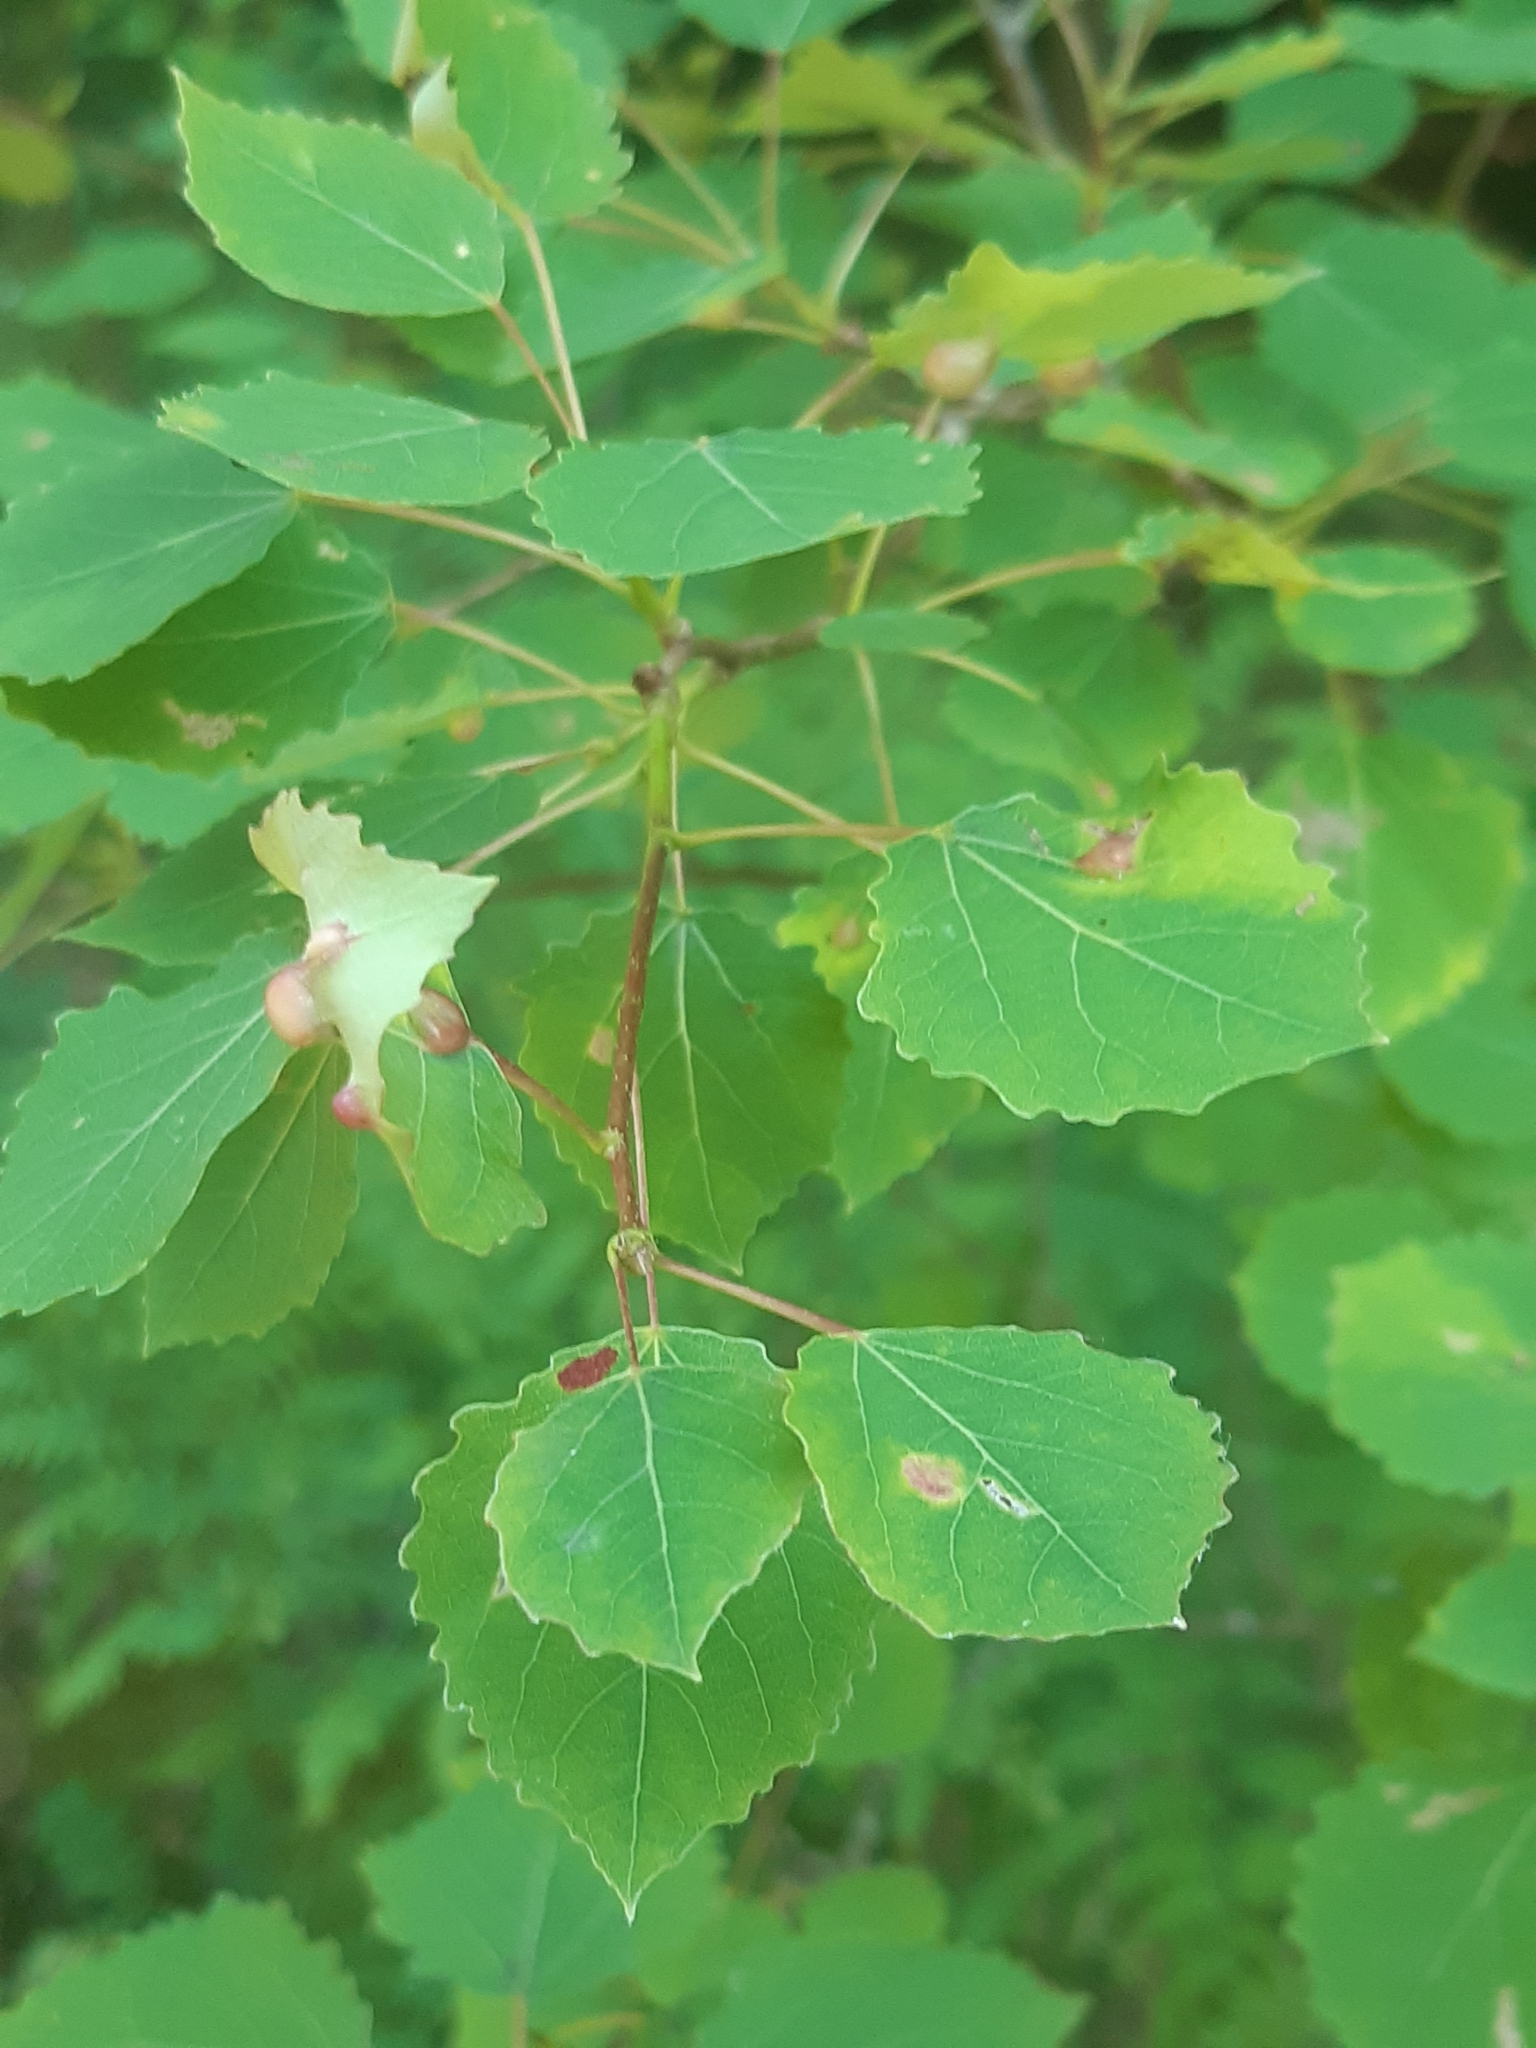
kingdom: Animalia
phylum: Arthropoda
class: Insecta
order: Diptera
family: Cecidomyiidae
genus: Harmandiola
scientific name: Harmandiola cavernosa
